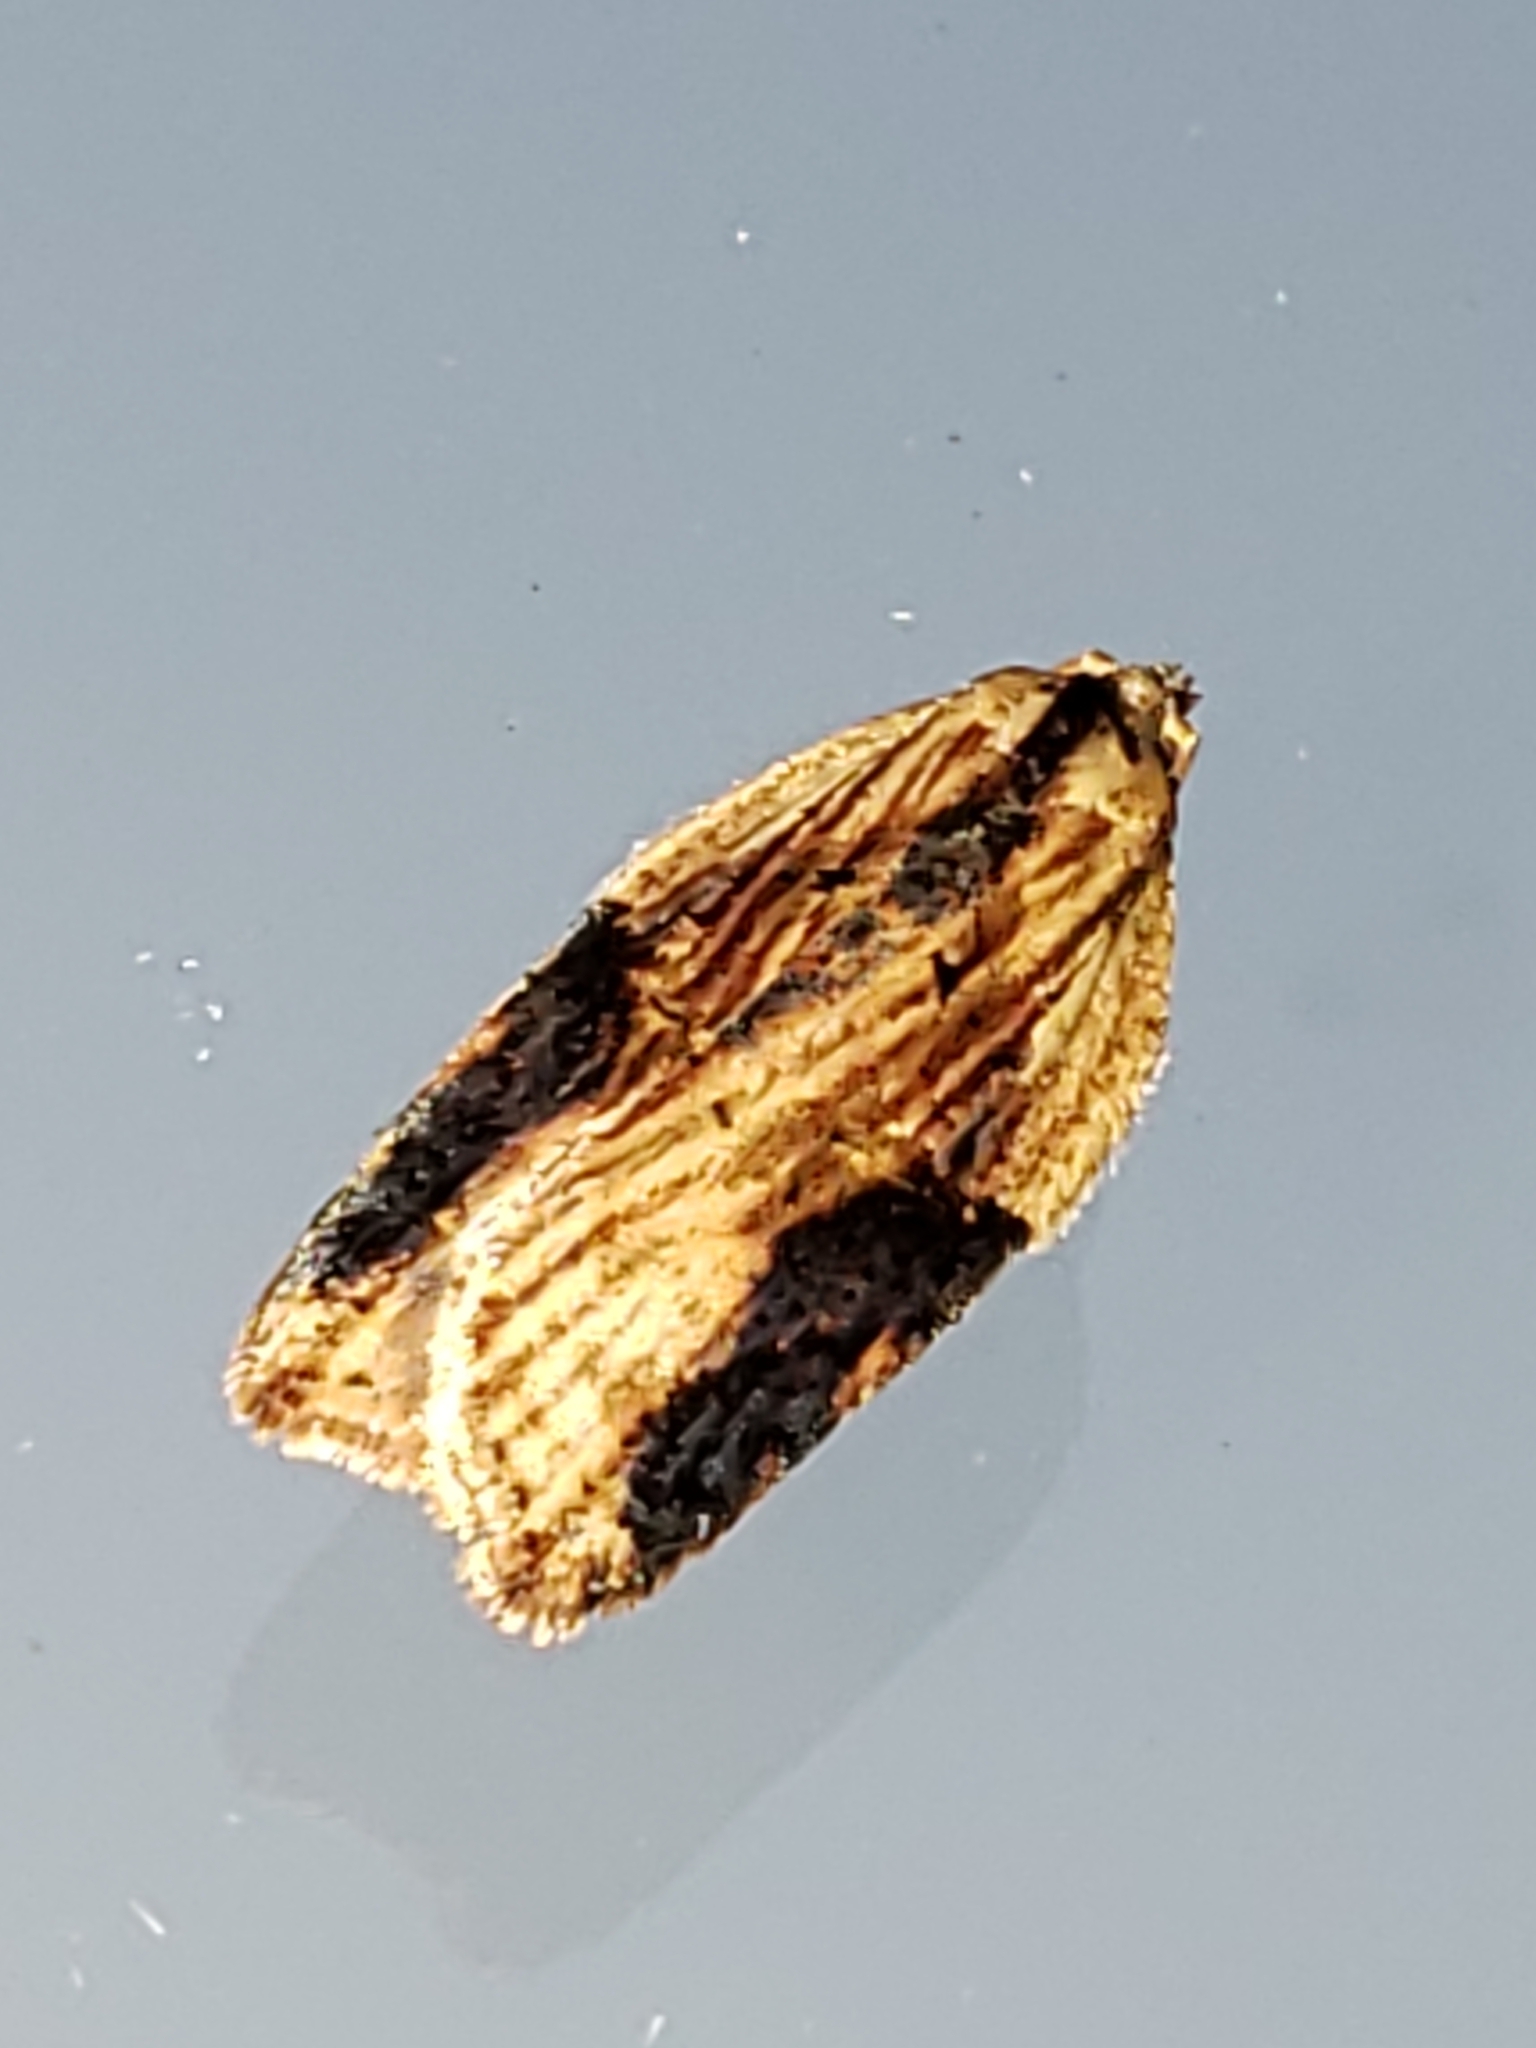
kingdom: Animalia
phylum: Arthropoda
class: Insecta
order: Lepidoptera
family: Tortricidae
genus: Acleris
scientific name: Acleris robinsoniana
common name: Robinson's acleris moth
